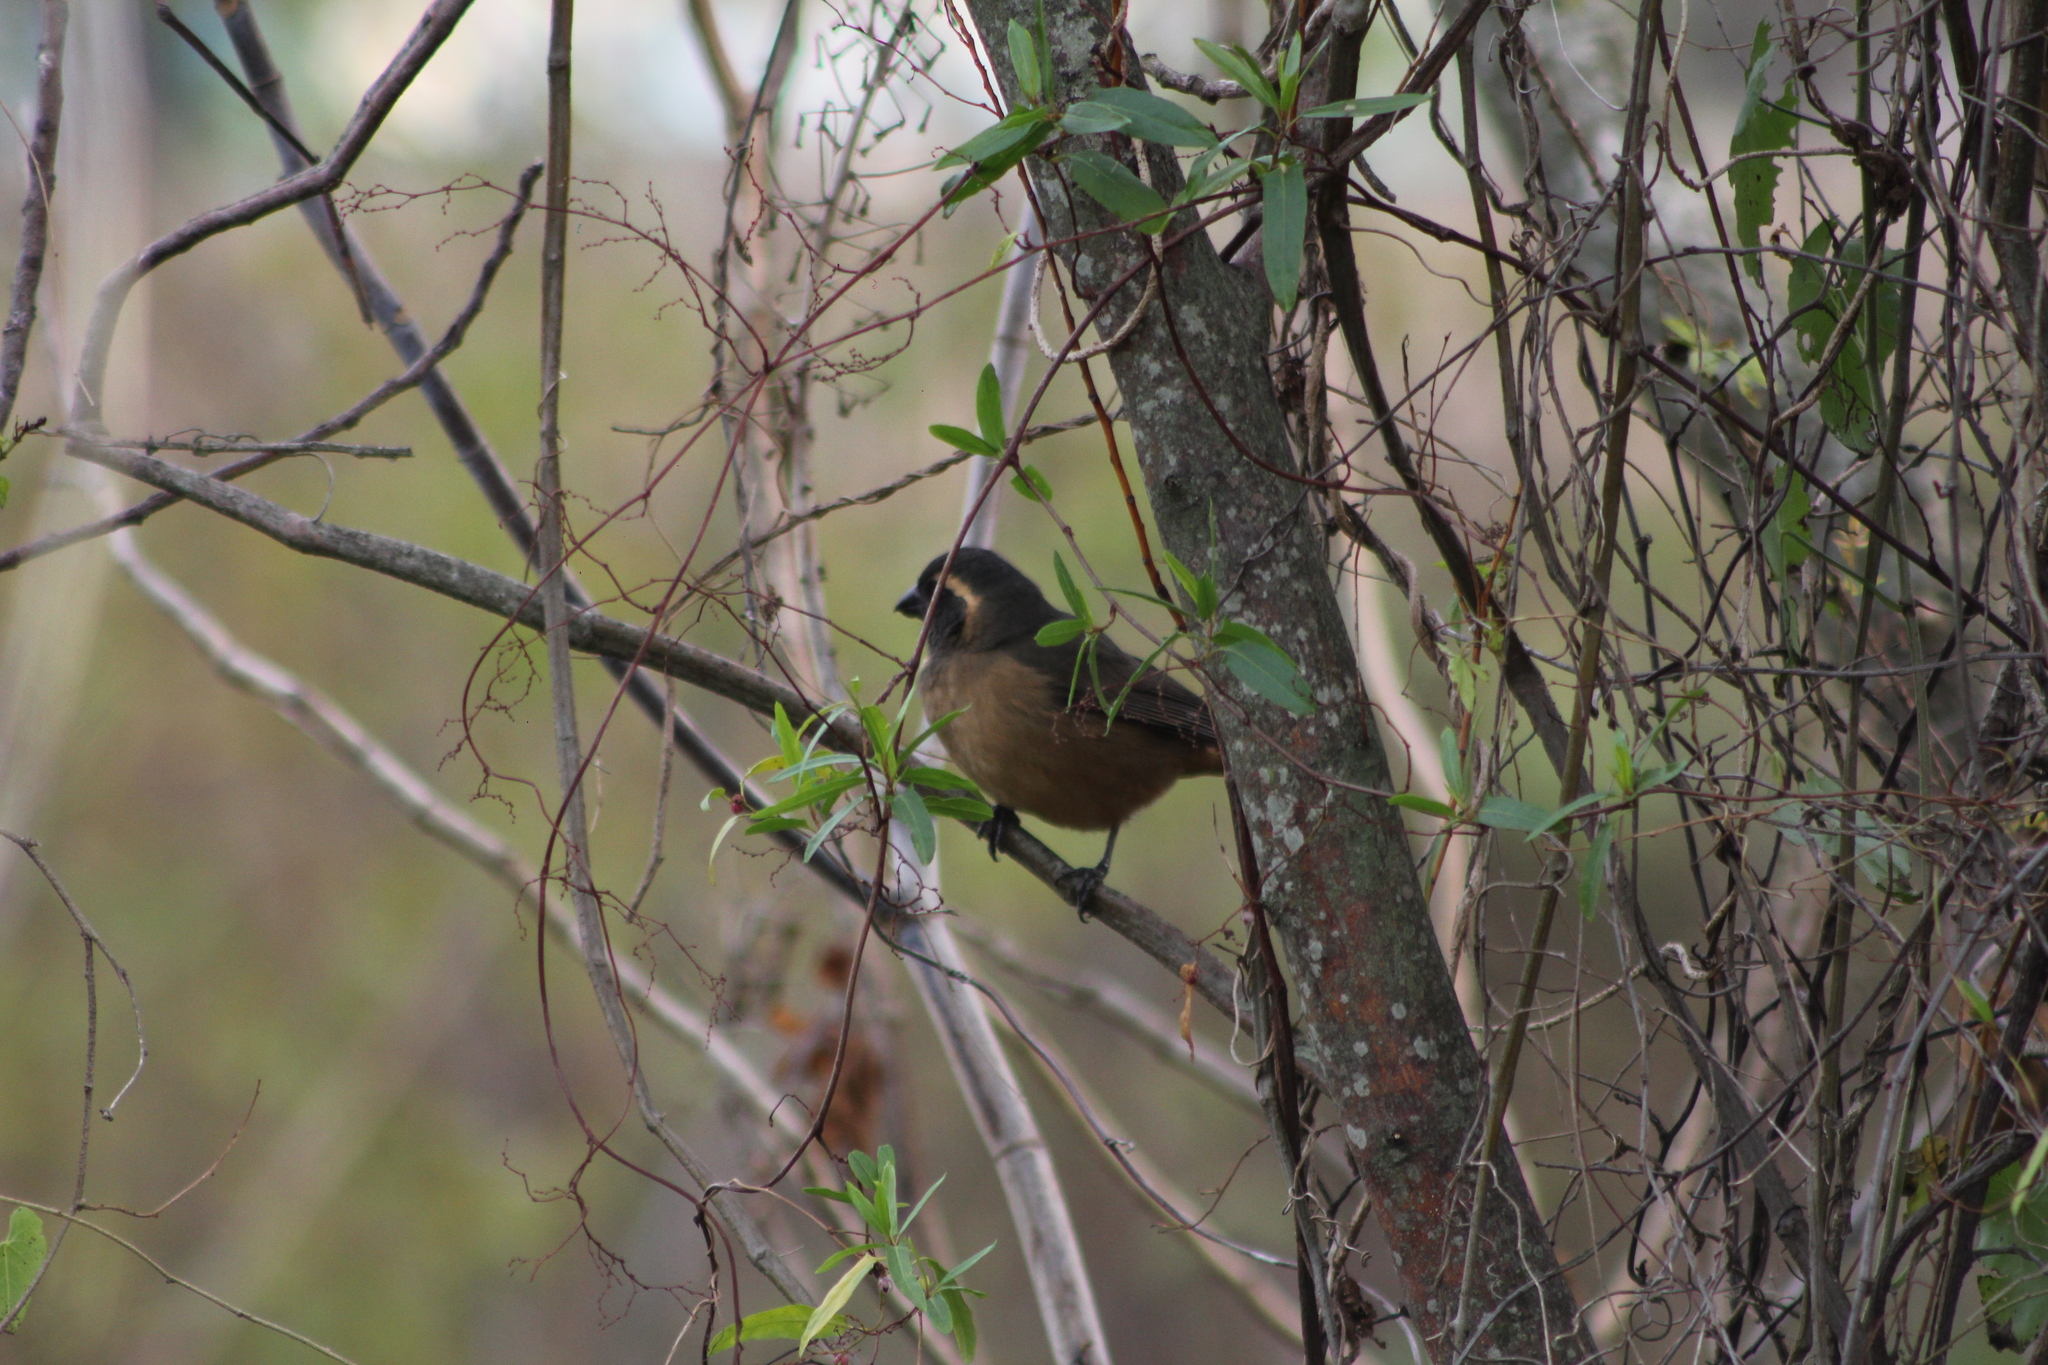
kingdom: Animalia
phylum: Chordata
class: Aves
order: Passeriformes
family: Thraupidae
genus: Saltator
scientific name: Saltator aurantiirostris
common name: Golden-billed saltator
